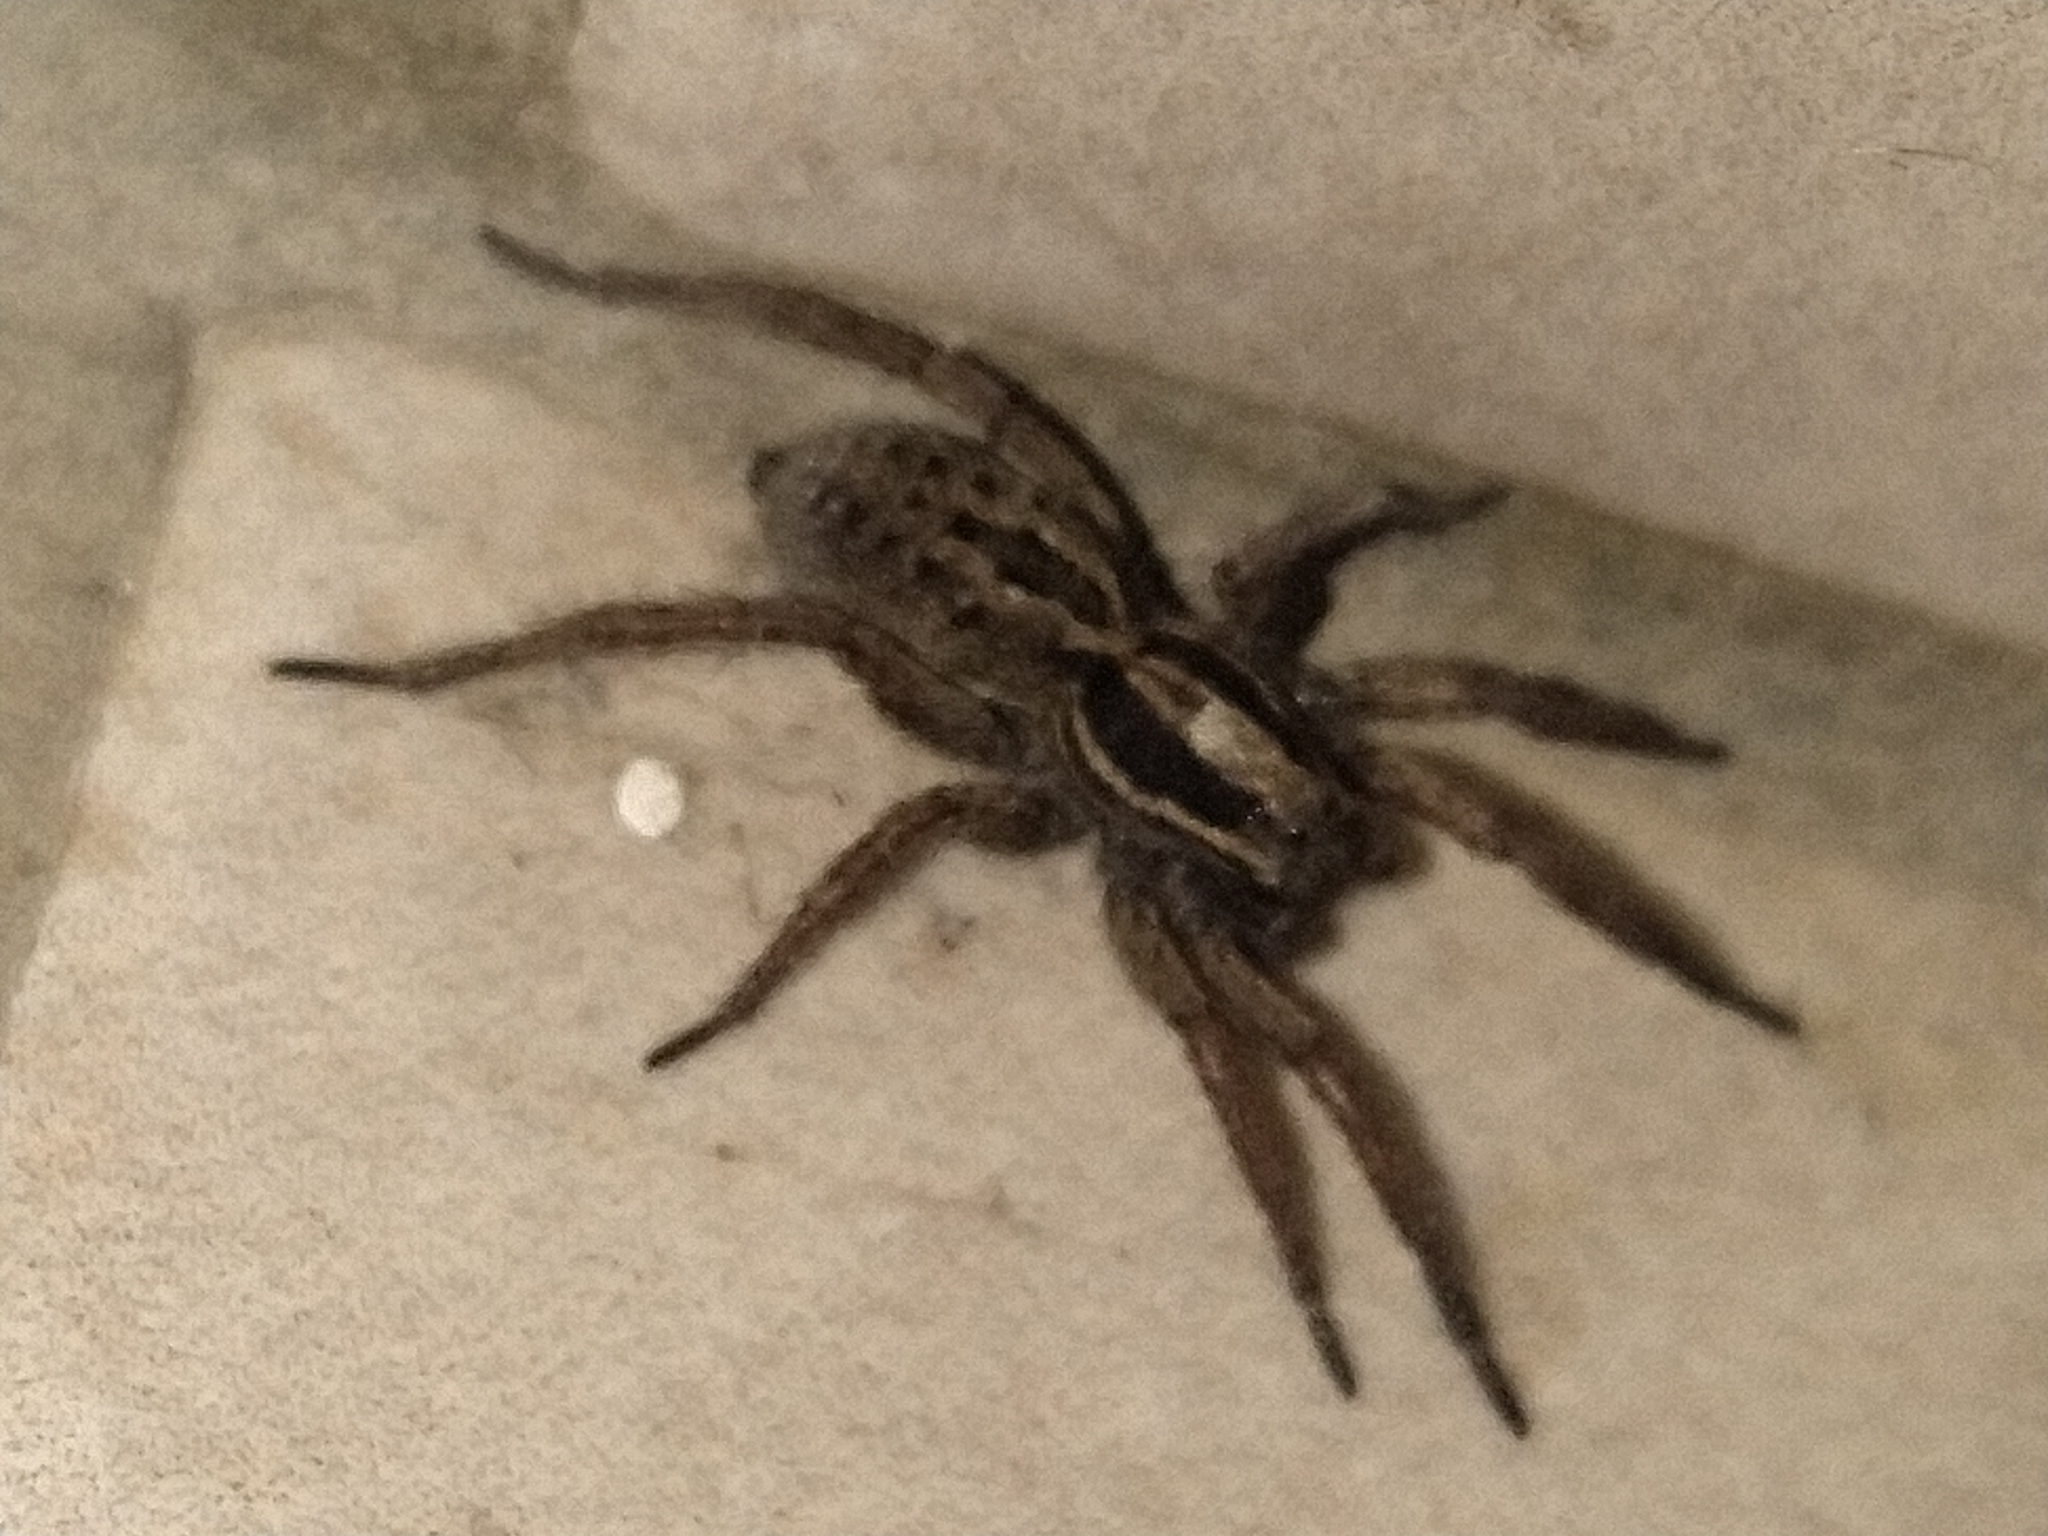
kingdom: Animalia
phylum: Arthropoda
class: Arachnida
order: Araneae
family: Lycosidae
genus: Alopecosa
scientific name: Alopecosa nigricans
